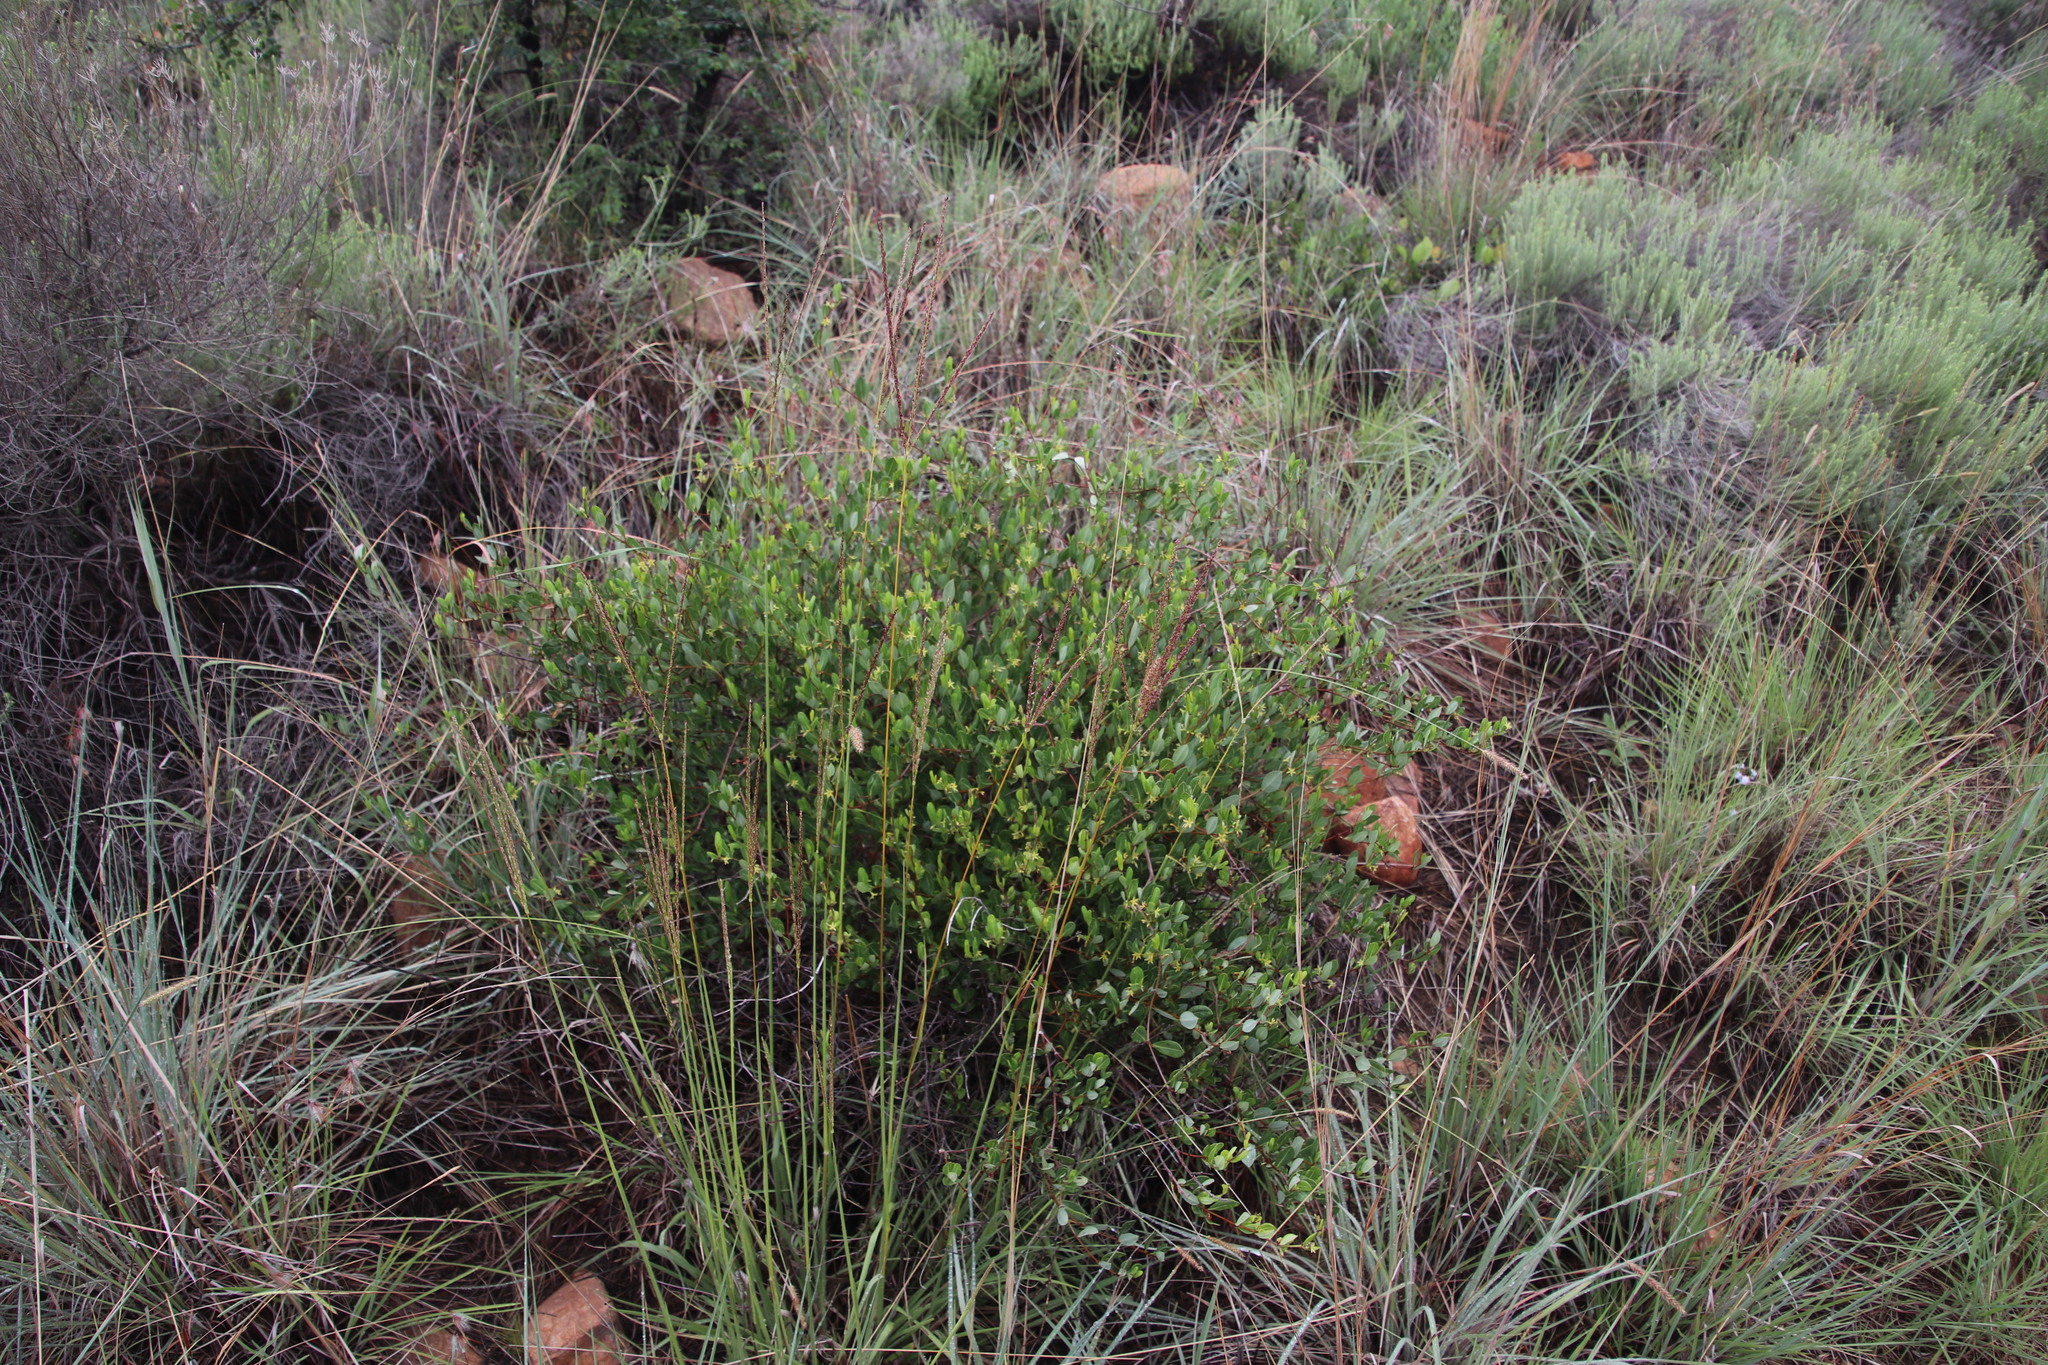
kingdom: Plantae
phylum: Tracheophyta
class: Magnoliopsida
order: Gentianales
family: Apocynaceae
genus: Cryptolepis
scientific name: Cryptolepis oblongifolia
